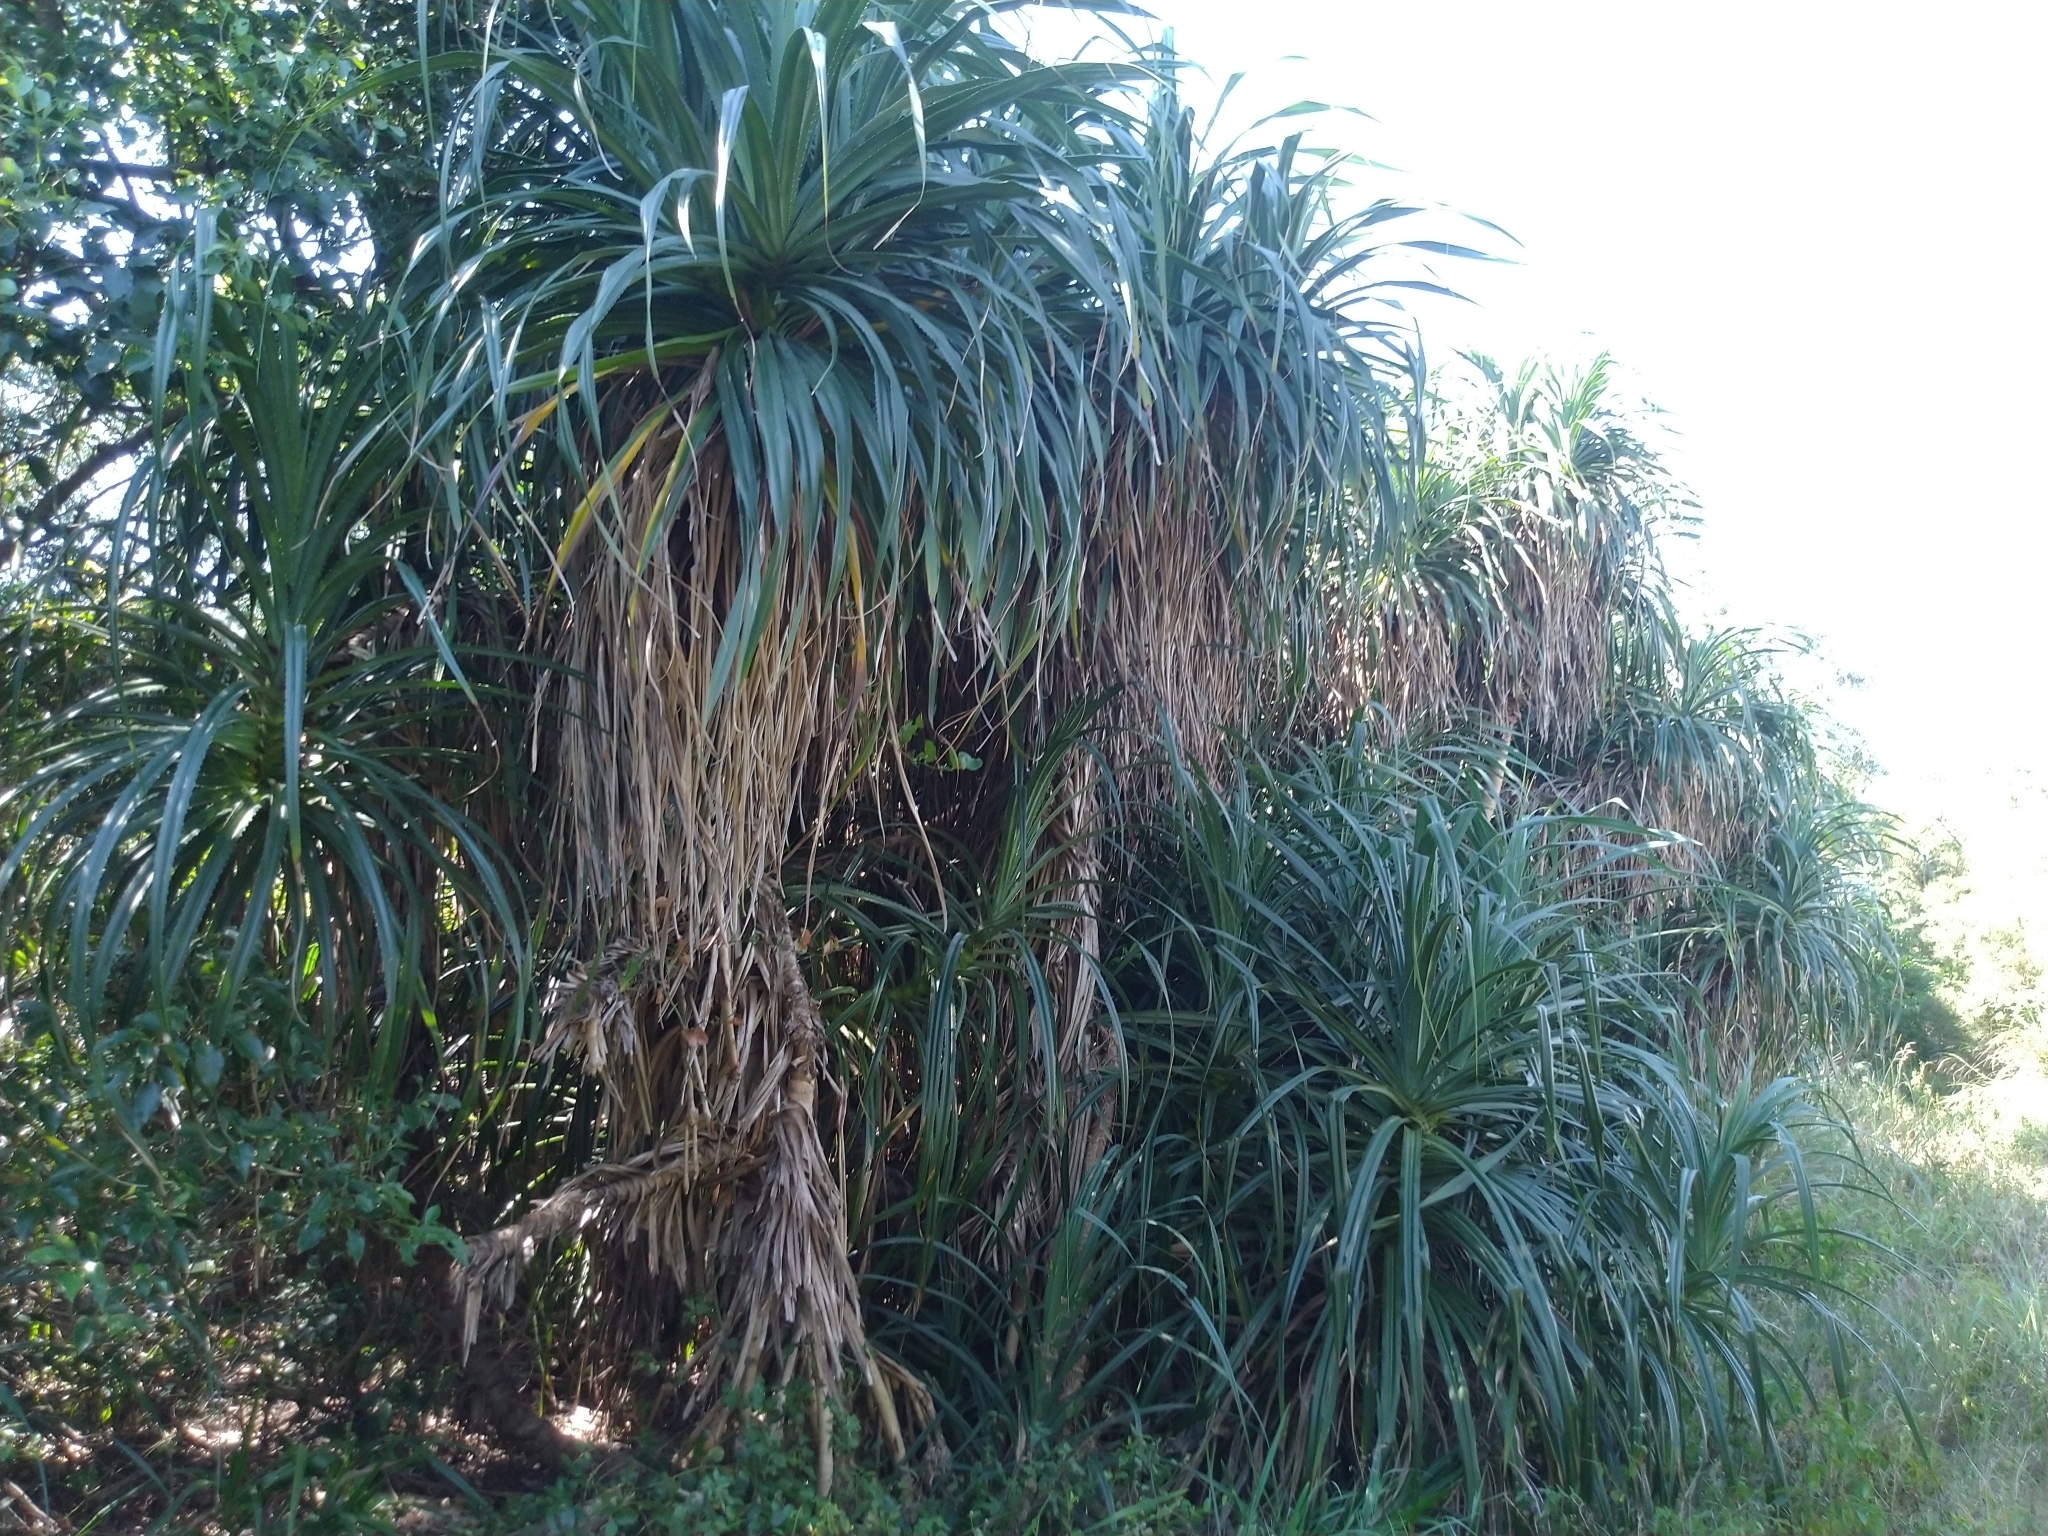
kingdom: Plantae
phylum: Tracheophyta
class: Liliopsida
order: Pandanales
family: Pandanaceae
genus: Pandanus
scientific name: Pandanus odorifer
